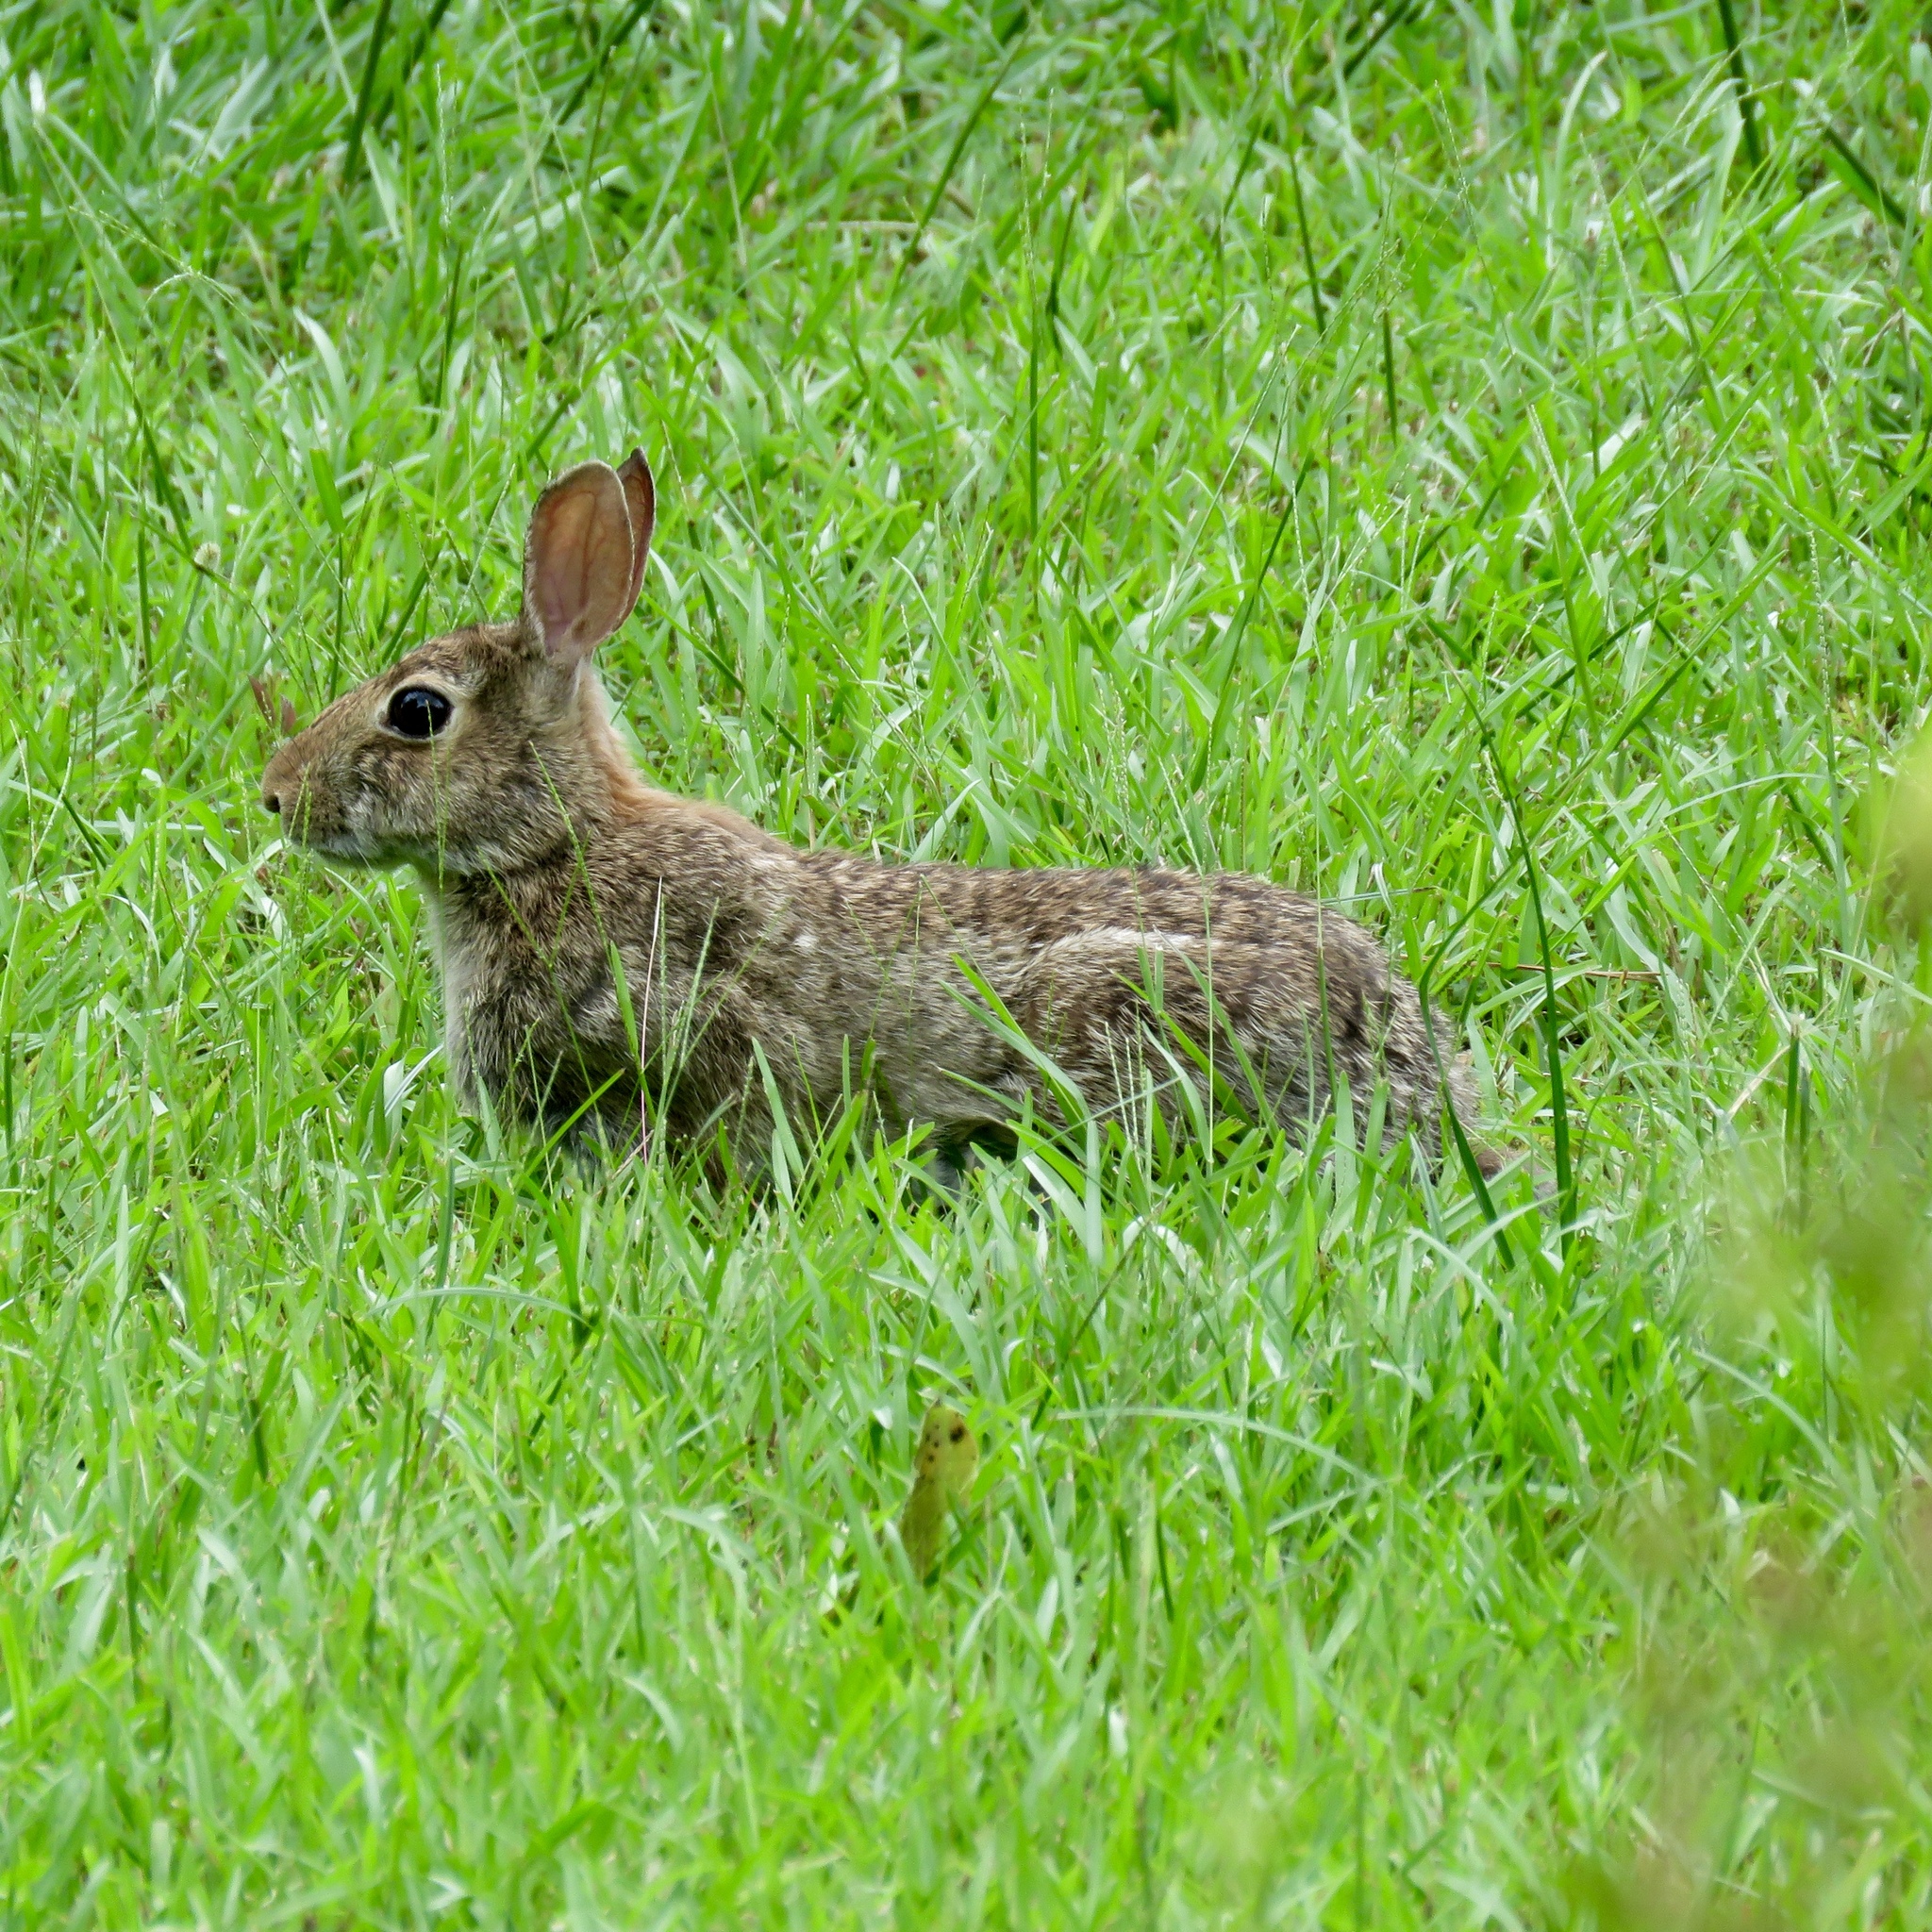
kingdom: Animalia
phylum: Chordata
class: Mammalia
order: Lagomorpha
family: Leporidae
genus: Sylvilagus
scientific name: Sylvilagus floridanus
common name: Eastern cottontail
